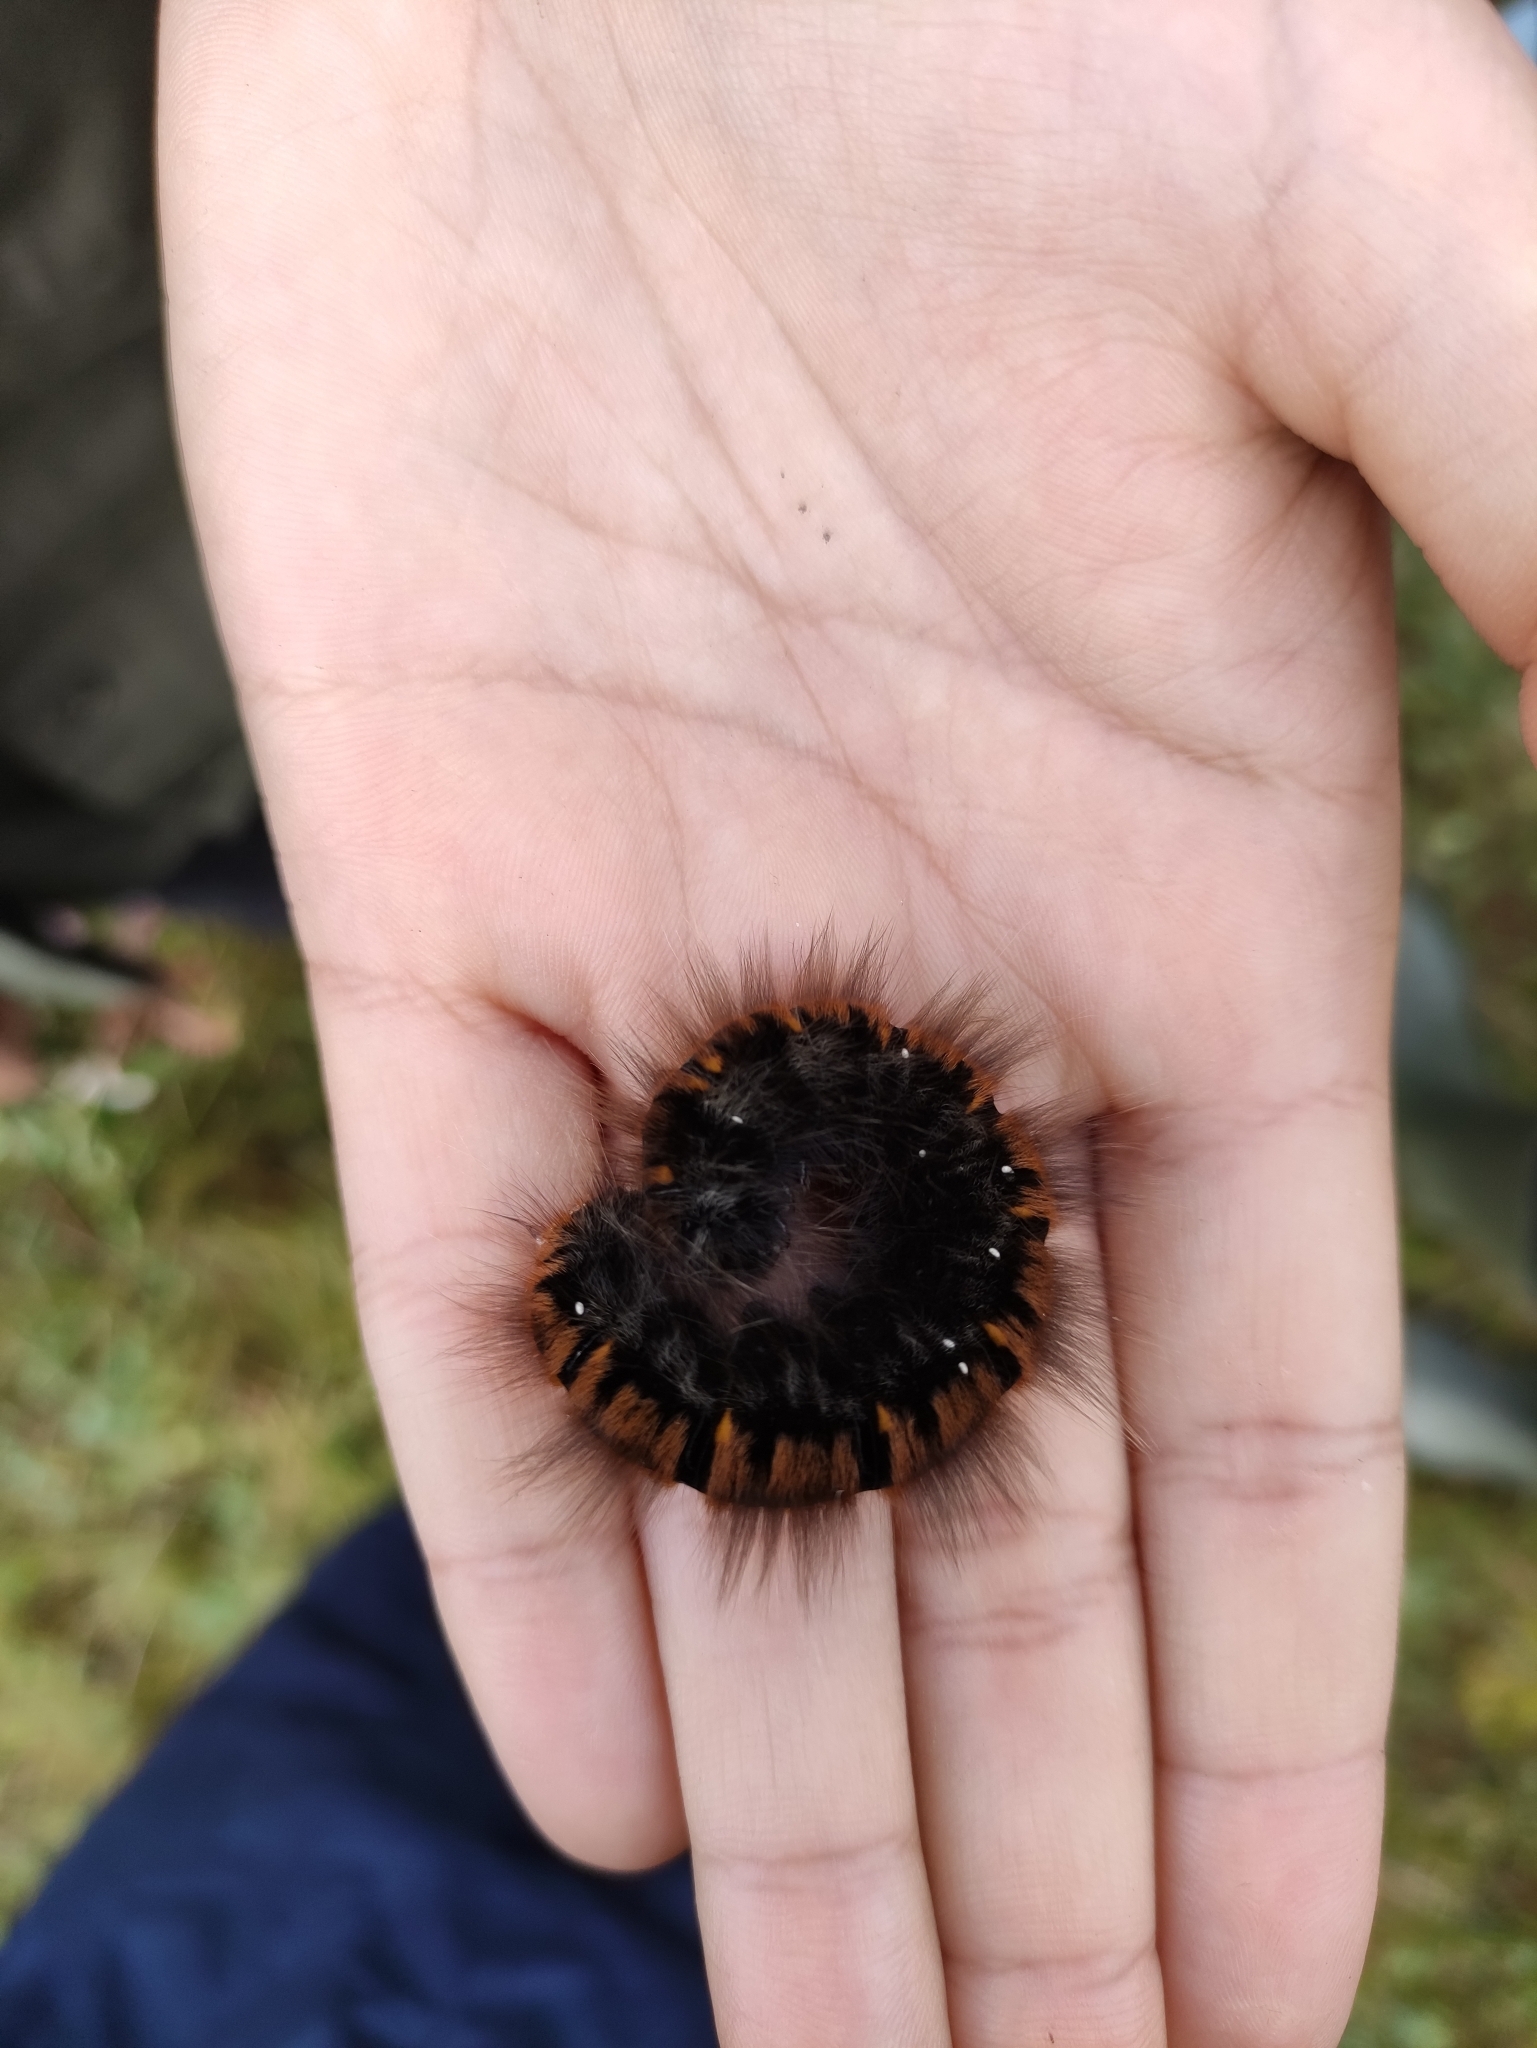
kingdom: Animalia
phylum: Arthropoda
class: Insecta
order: Lepidoptera
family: Lasiocampidae
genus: Macrothylacia
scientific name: Macrothylacia rubi
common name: Fox moth
